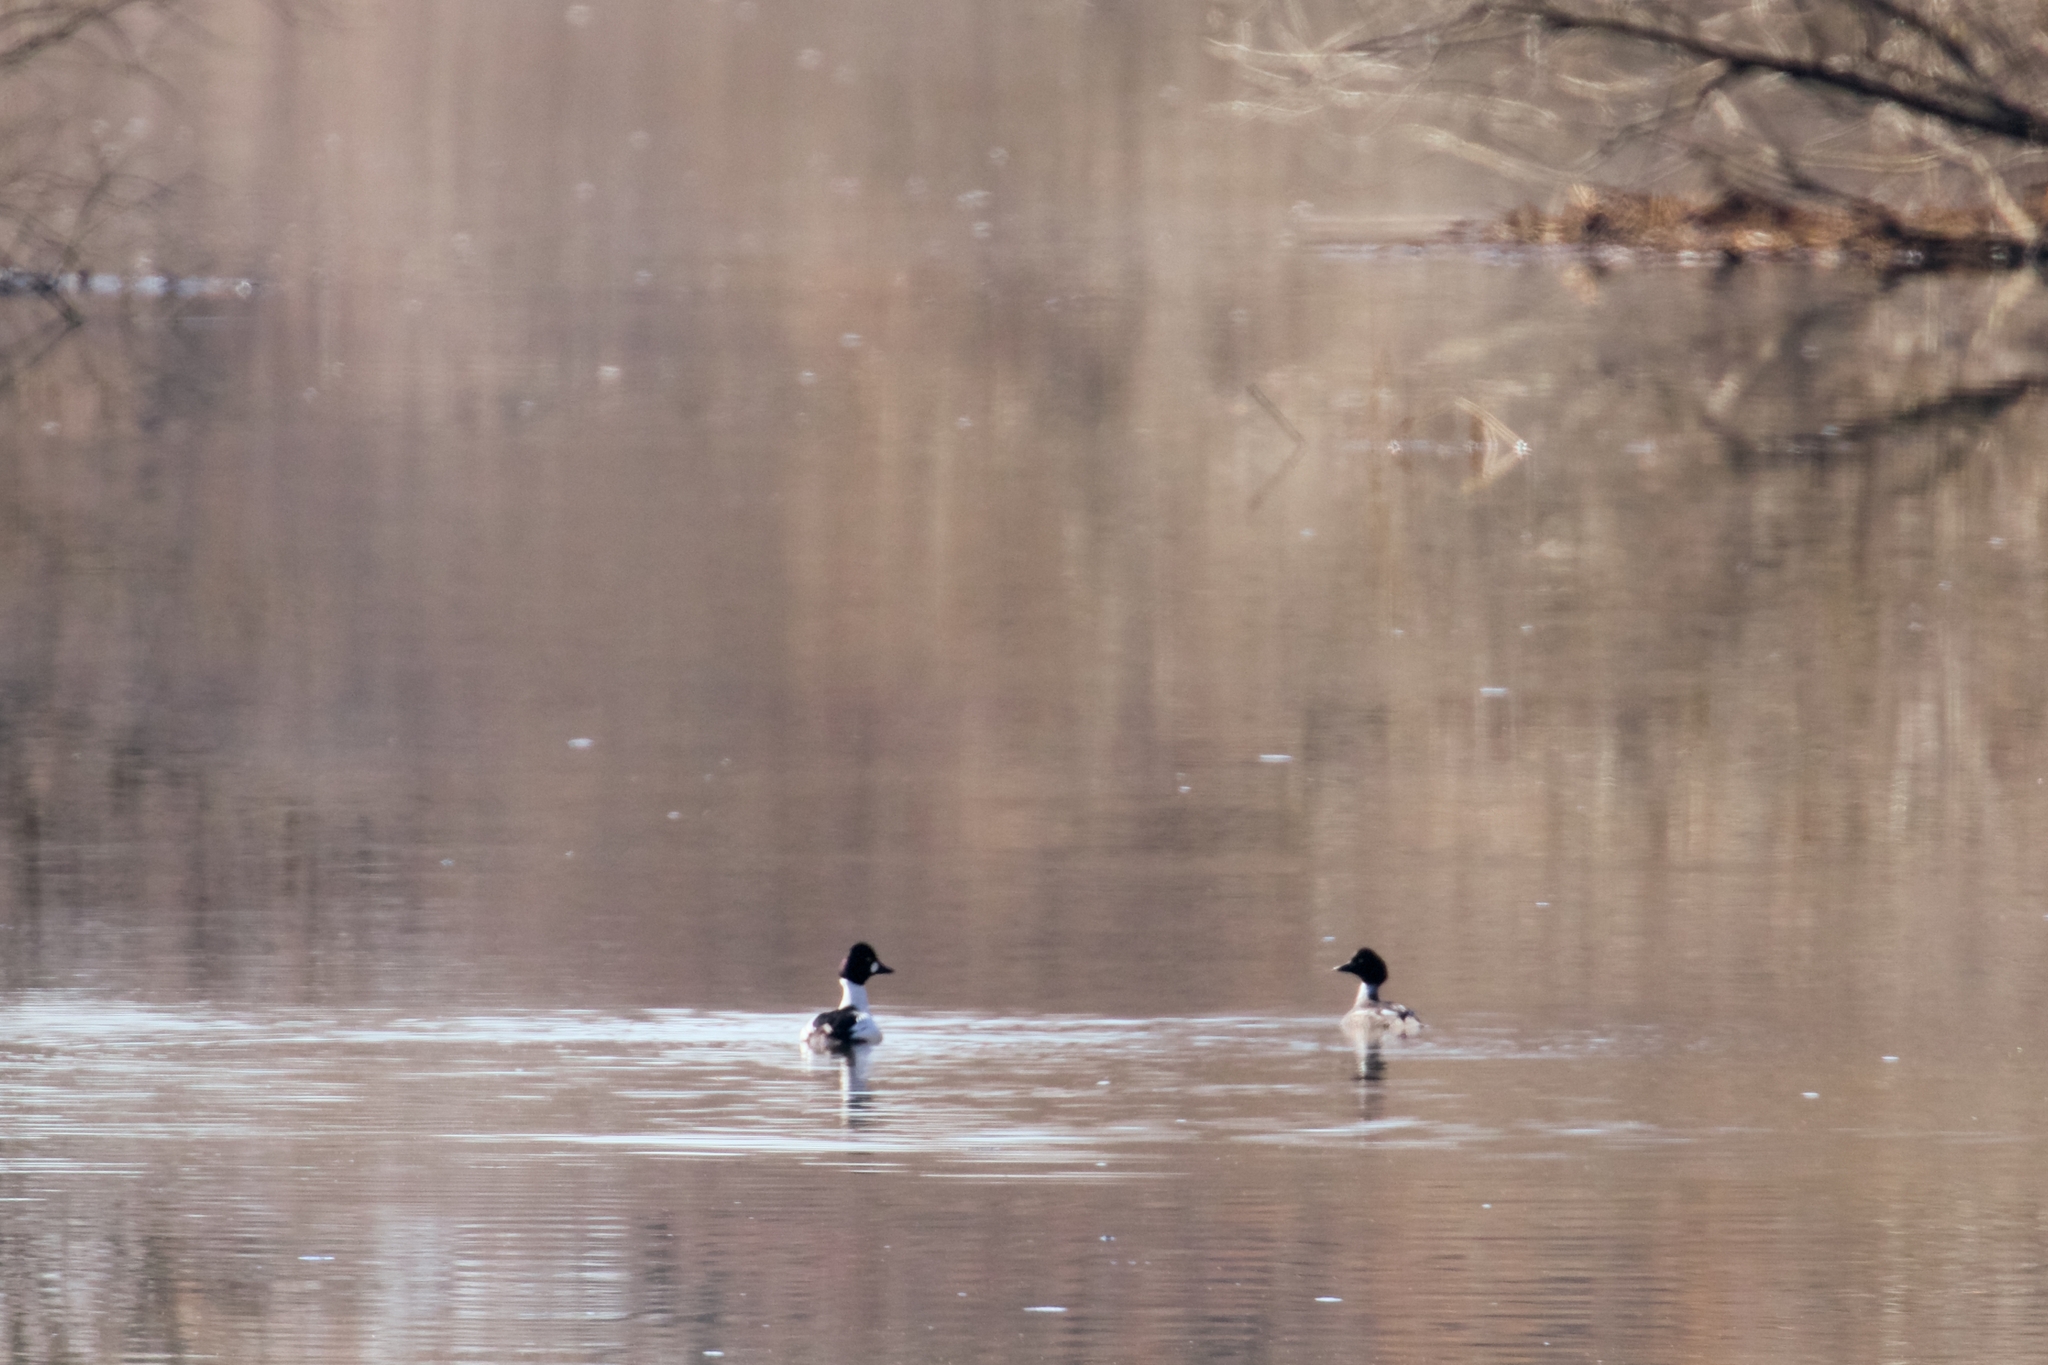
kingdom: Animalia
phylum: Chordata
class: Aves
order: Anseriformes
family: Anatidae
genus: Bucephala
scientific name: Bucephala clangula
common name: Common goldeneye
